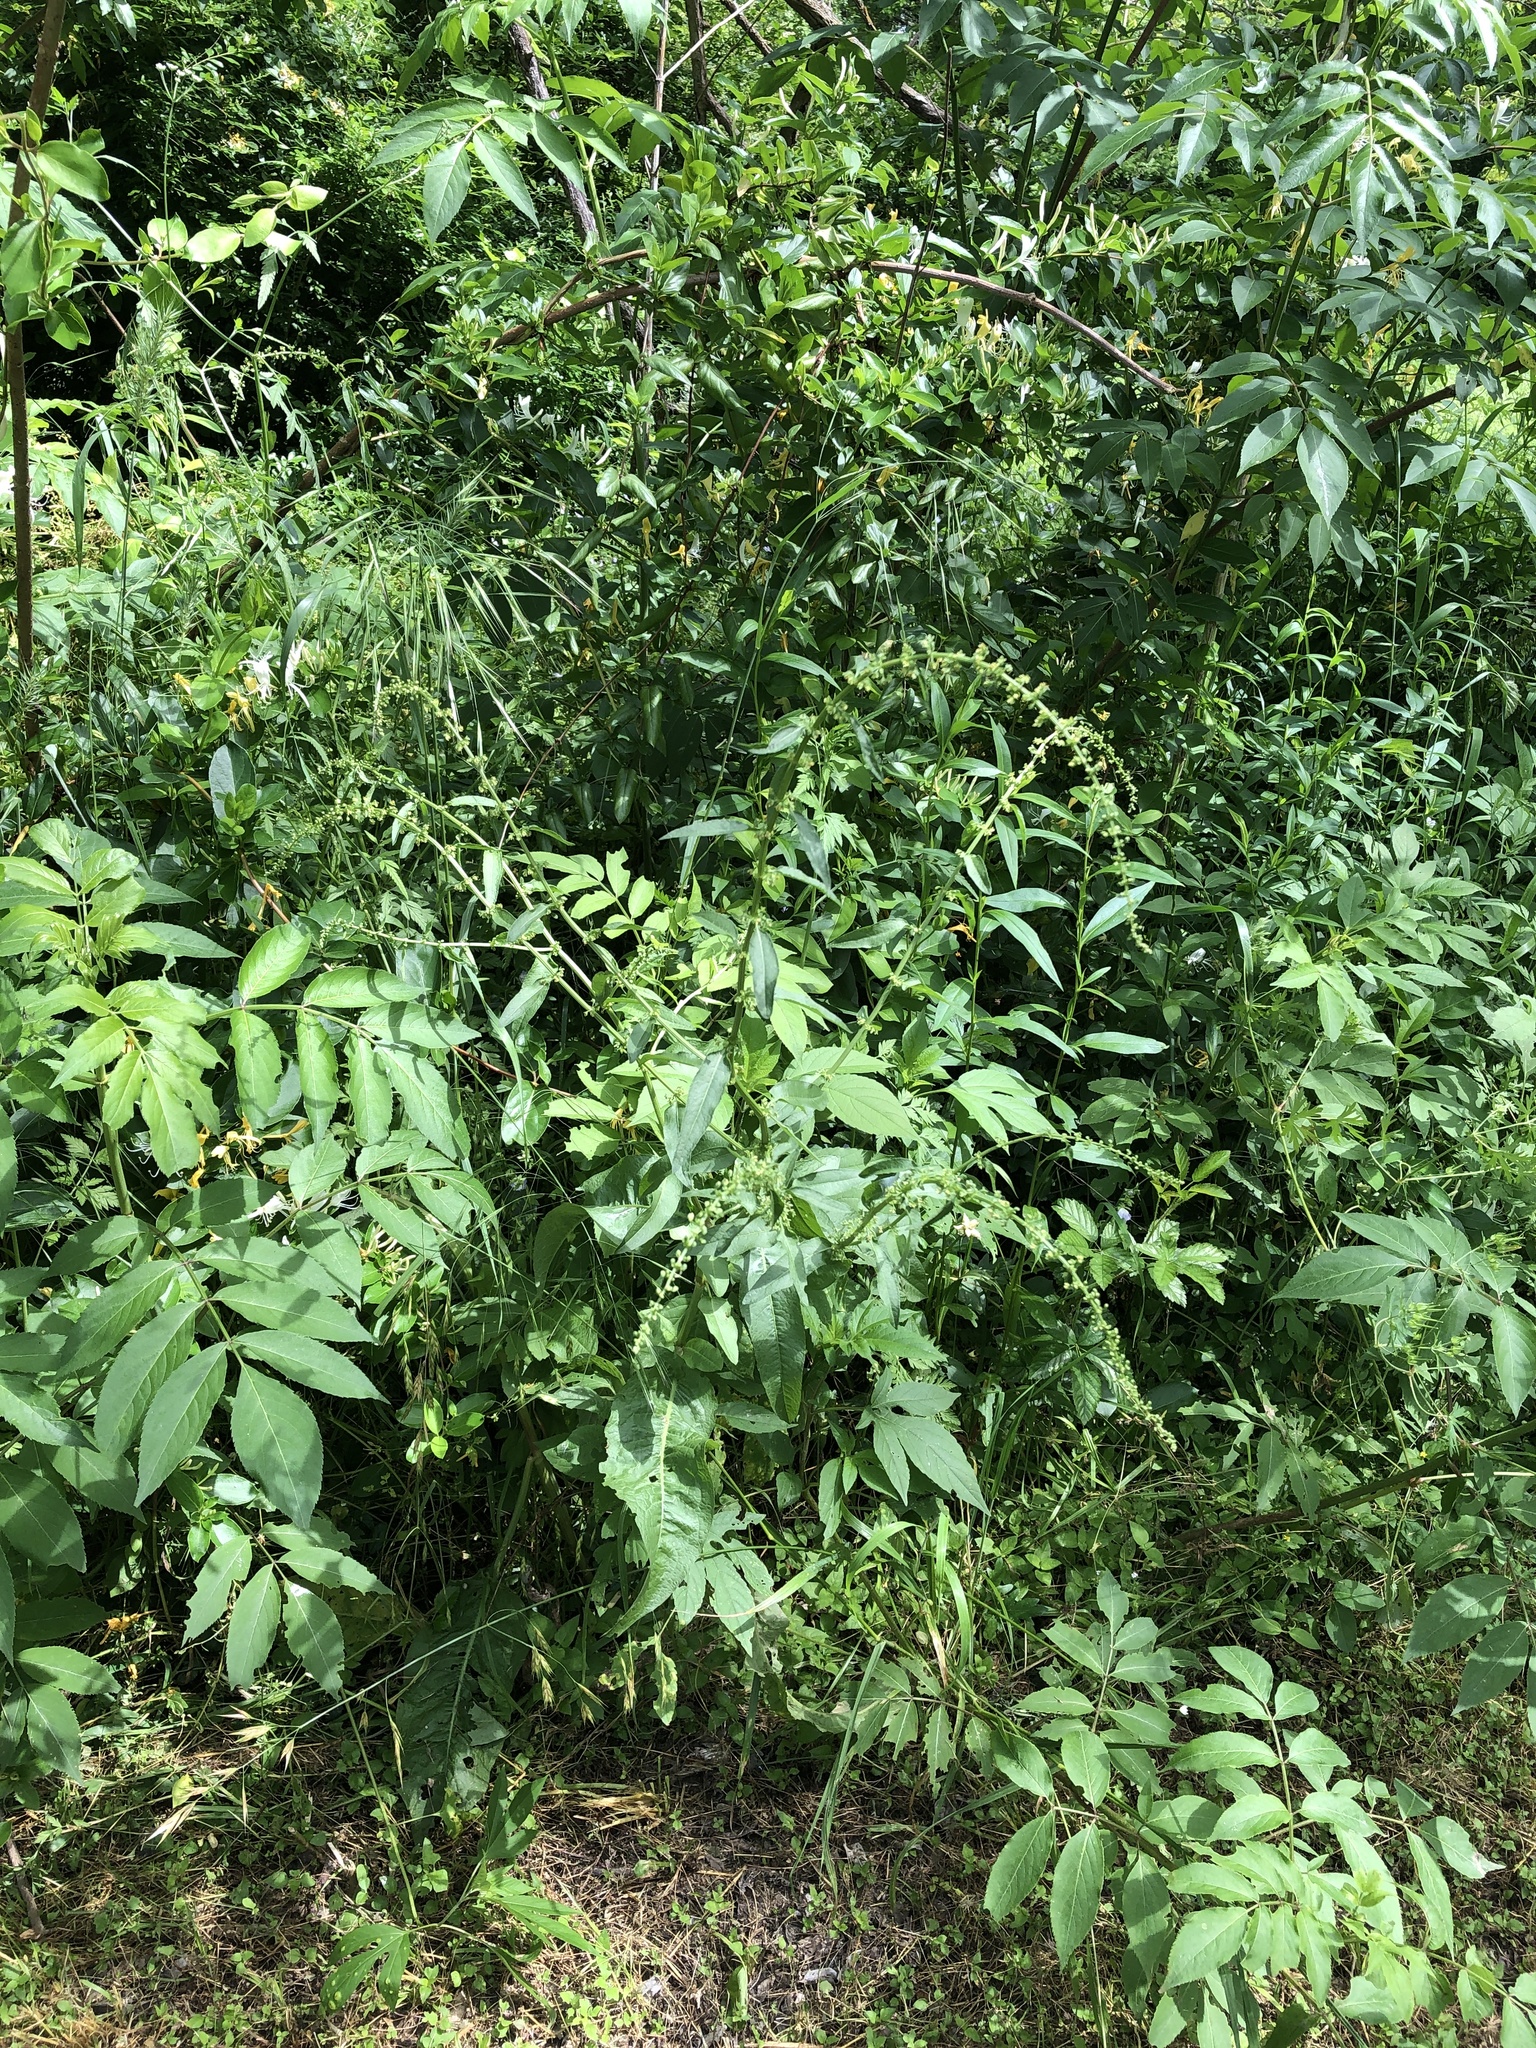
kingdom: Plantae
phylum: Tracheophyta
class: Magnoliopsida
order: Caryophyllales
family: Polygonaceae
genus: Rumex
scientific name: Rumex pulcher
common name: Fiddle dock
